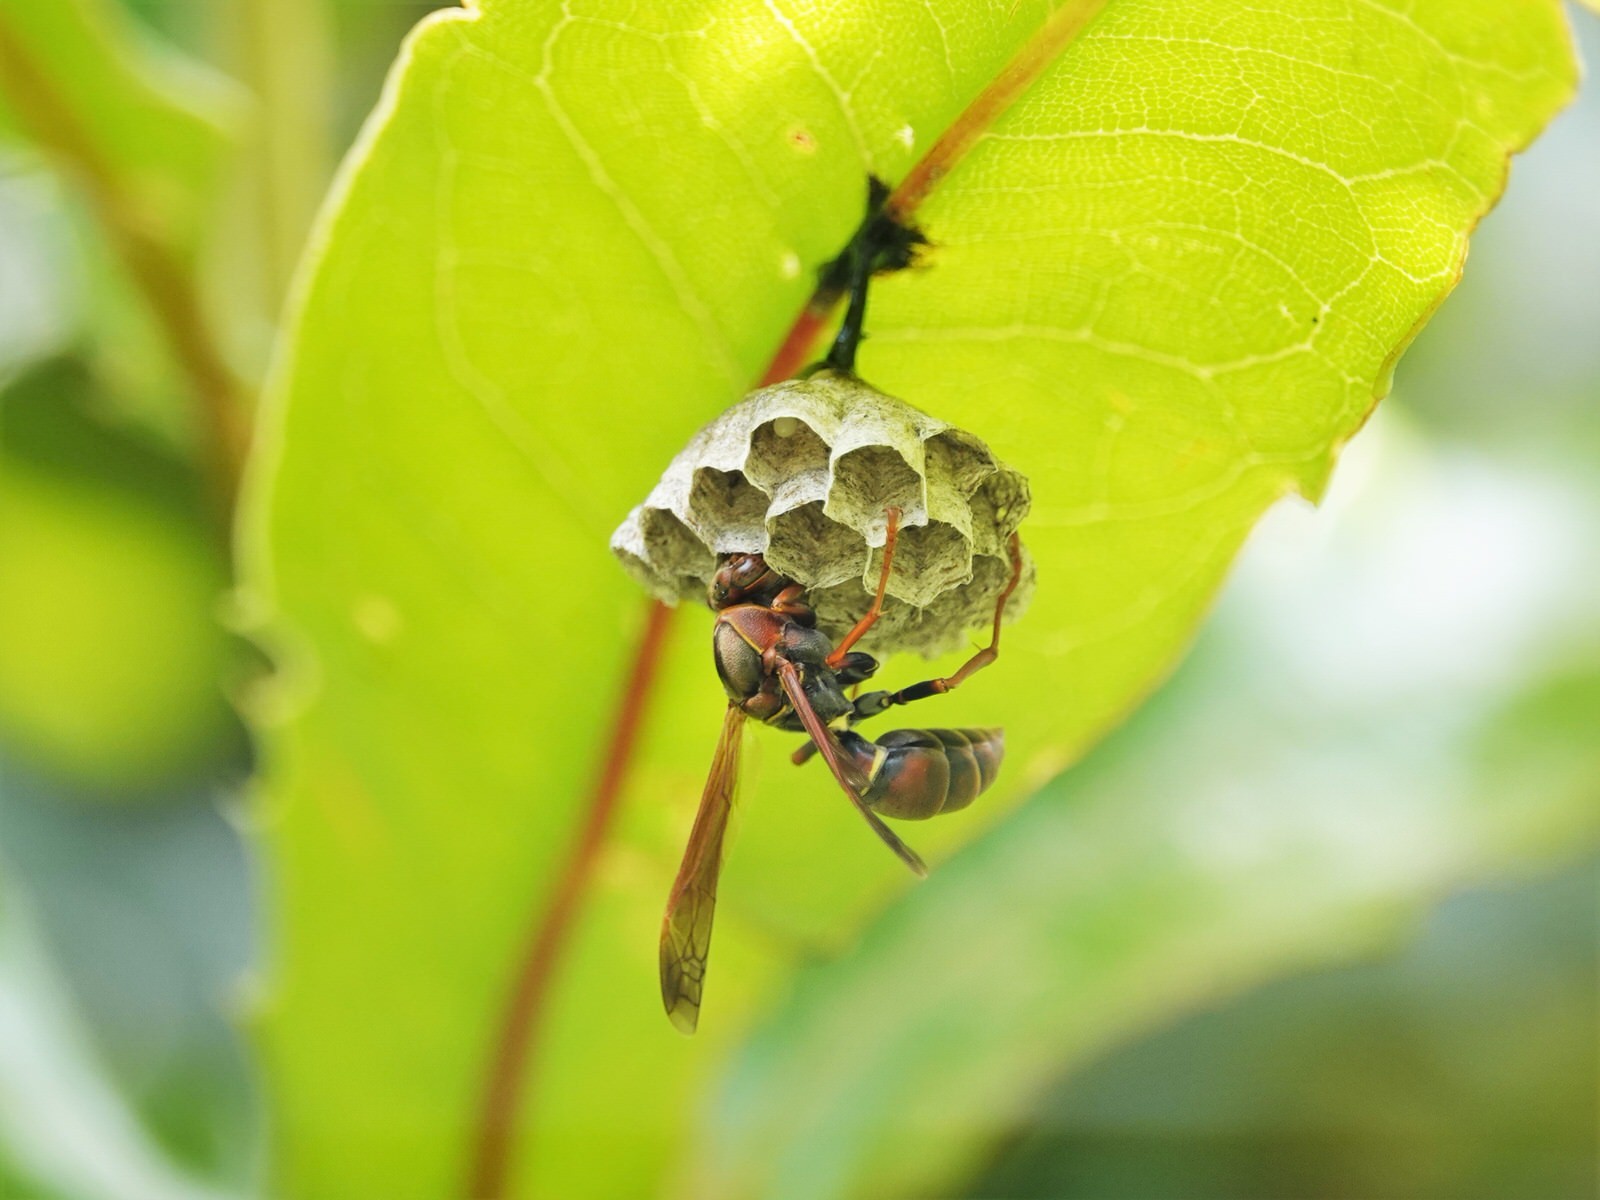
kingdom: Animalia
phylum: Arthropoda
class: Insecta
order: Hymenoptera
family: Eumenidae
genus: Polistes
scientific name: Polistes humilis
